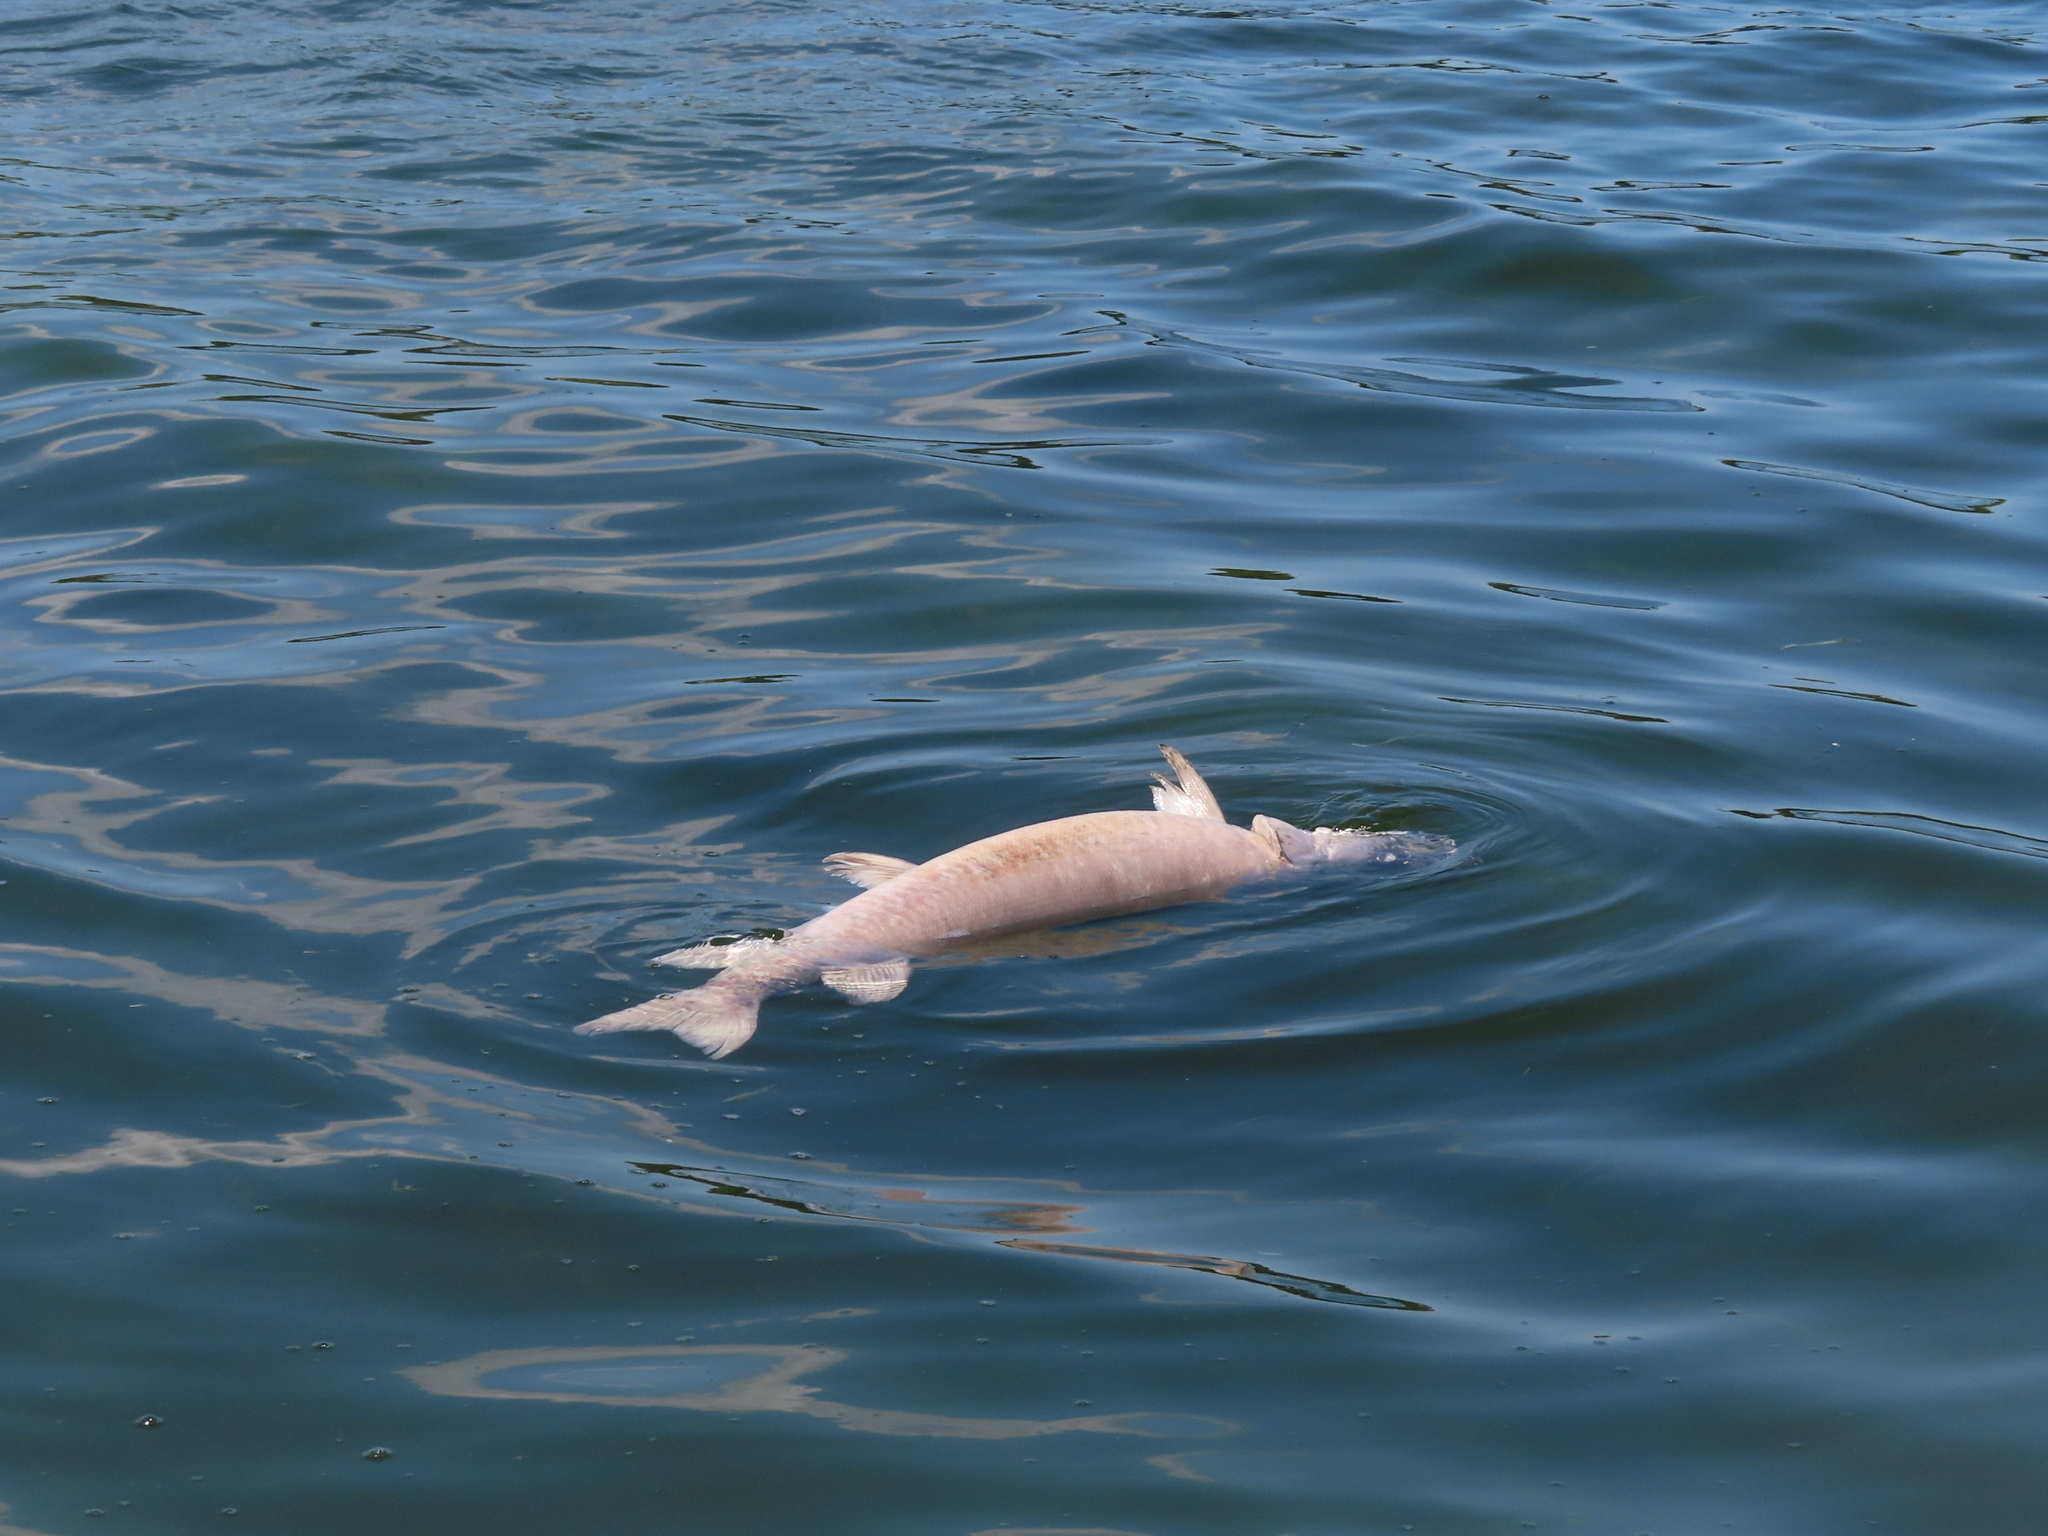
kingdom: Animalia
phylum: Chordata
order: Esociformes
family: Esocidae
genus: Esox
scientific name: Esox masquinongy
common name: Muskellunge
